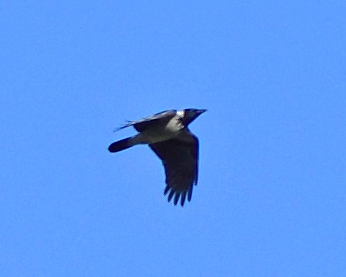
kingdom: Animalia
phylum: Chordata
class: Aves
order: Passeriformes
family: Corvidae
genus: Corvus
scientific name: Corvus cornix
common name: Hooded crow
